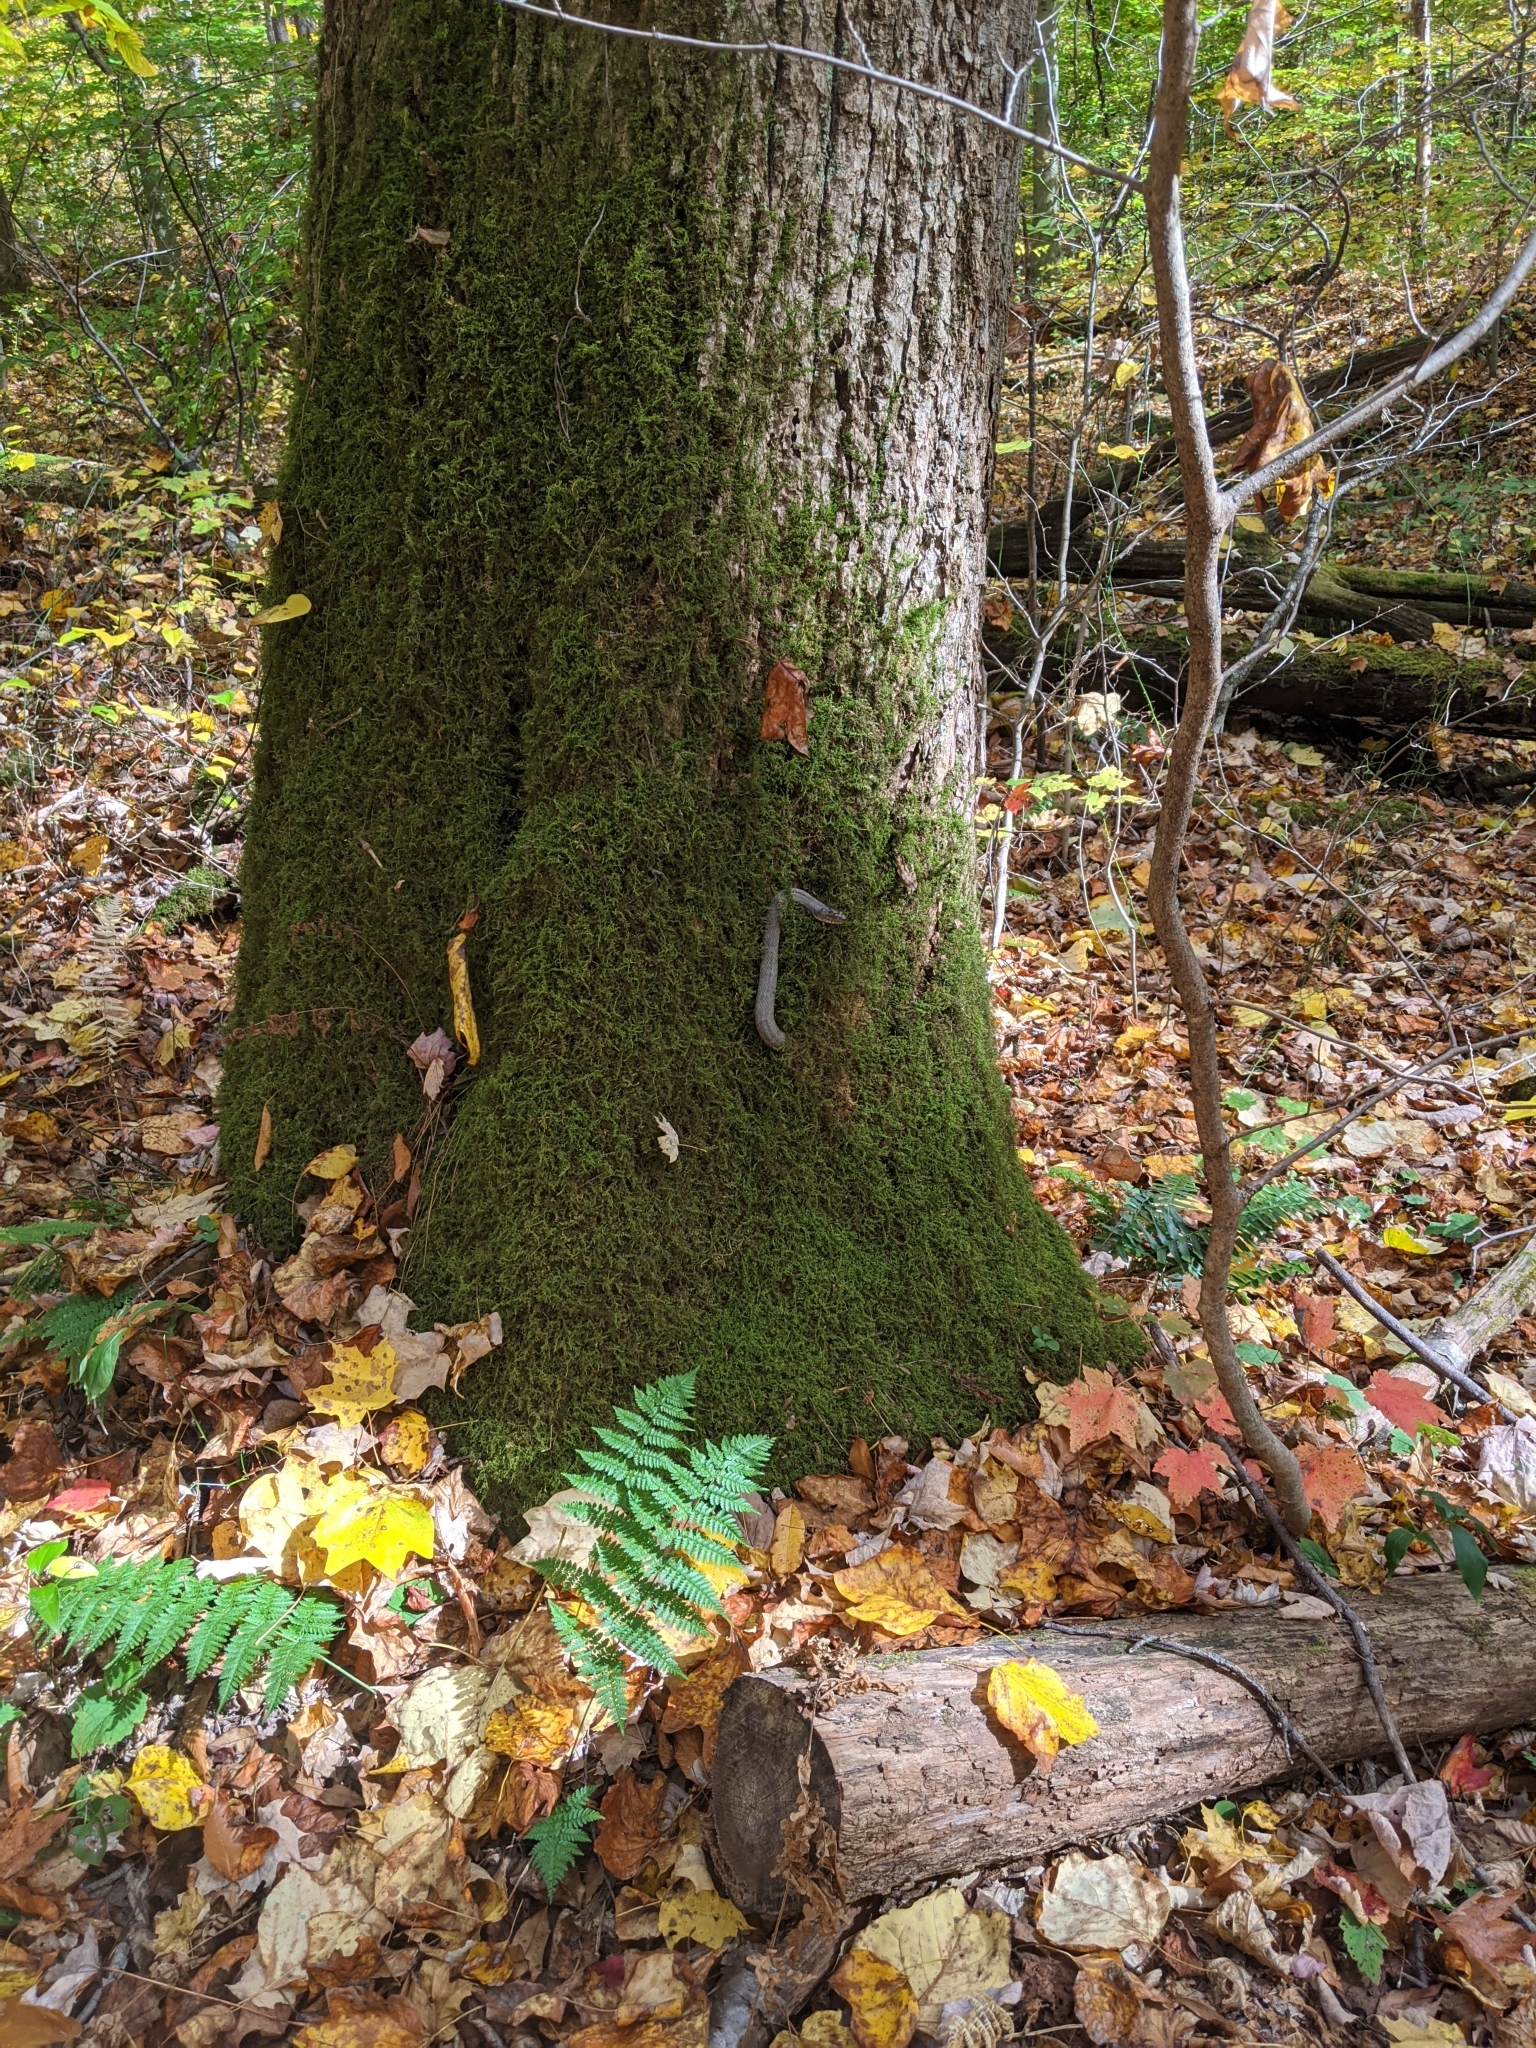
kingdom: Animalia
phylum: Chordata
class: Squamata
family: Colubridae
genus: Nerodia
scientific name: Nerodia sipedon
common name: Northern water snake
